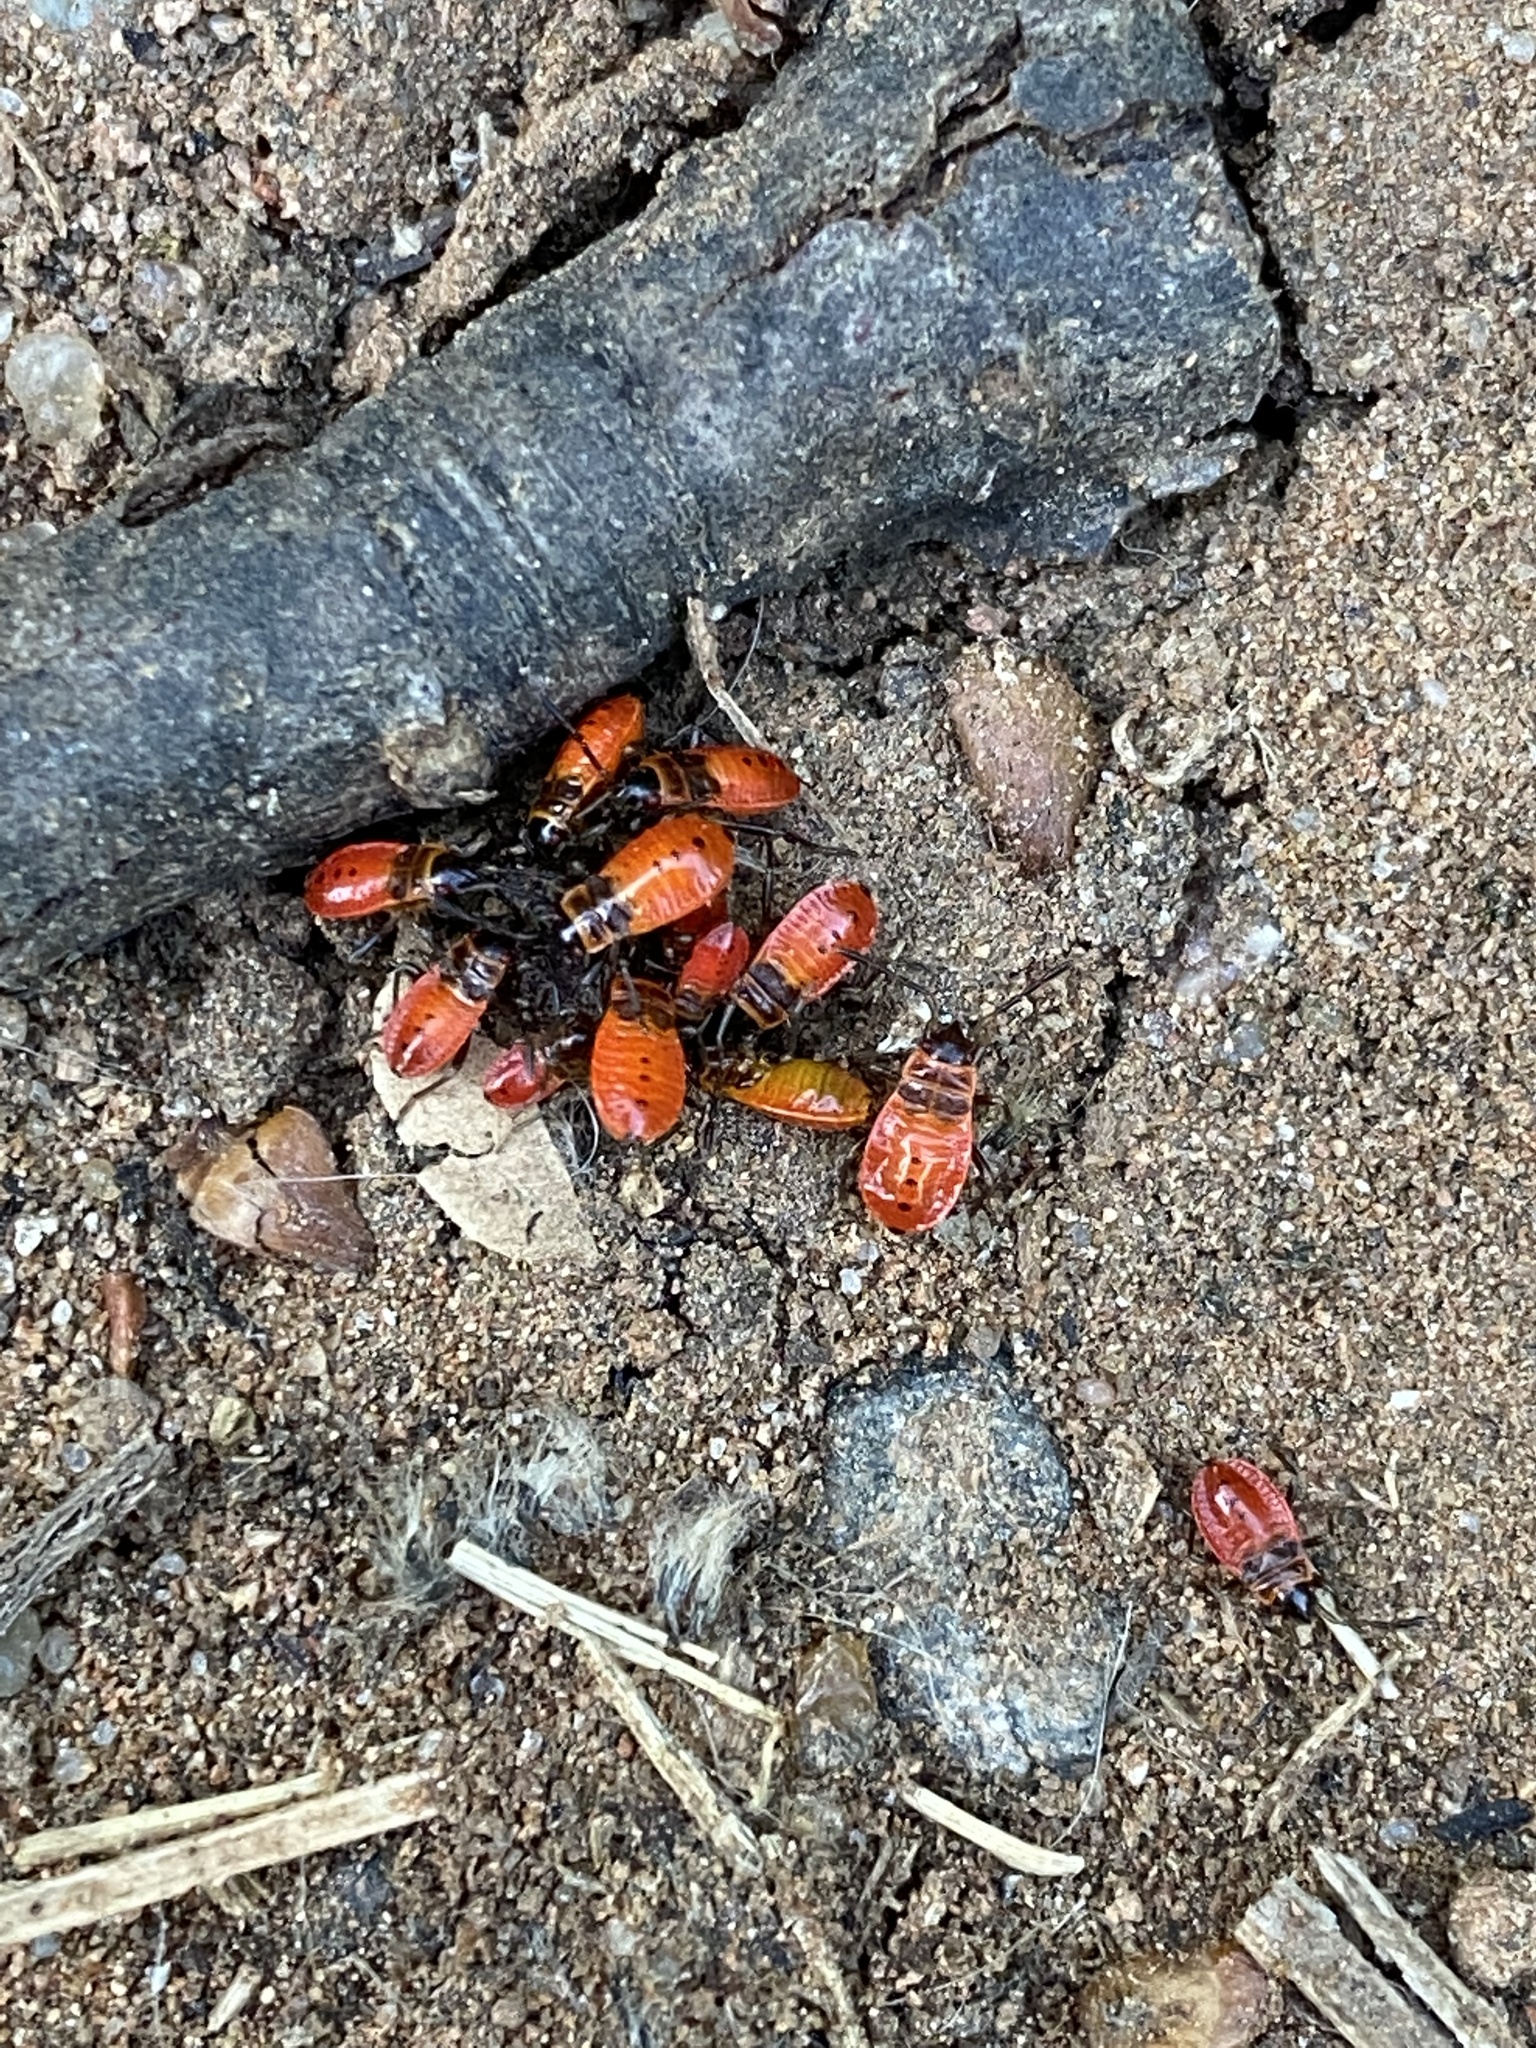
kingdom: Animalia
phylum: Arthropoda
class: Insecta
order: Hemiptera
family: Pyrrhocoridae
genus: Pyrrhocoris
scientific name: Pyrrhocoris apterus
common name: Firebug
